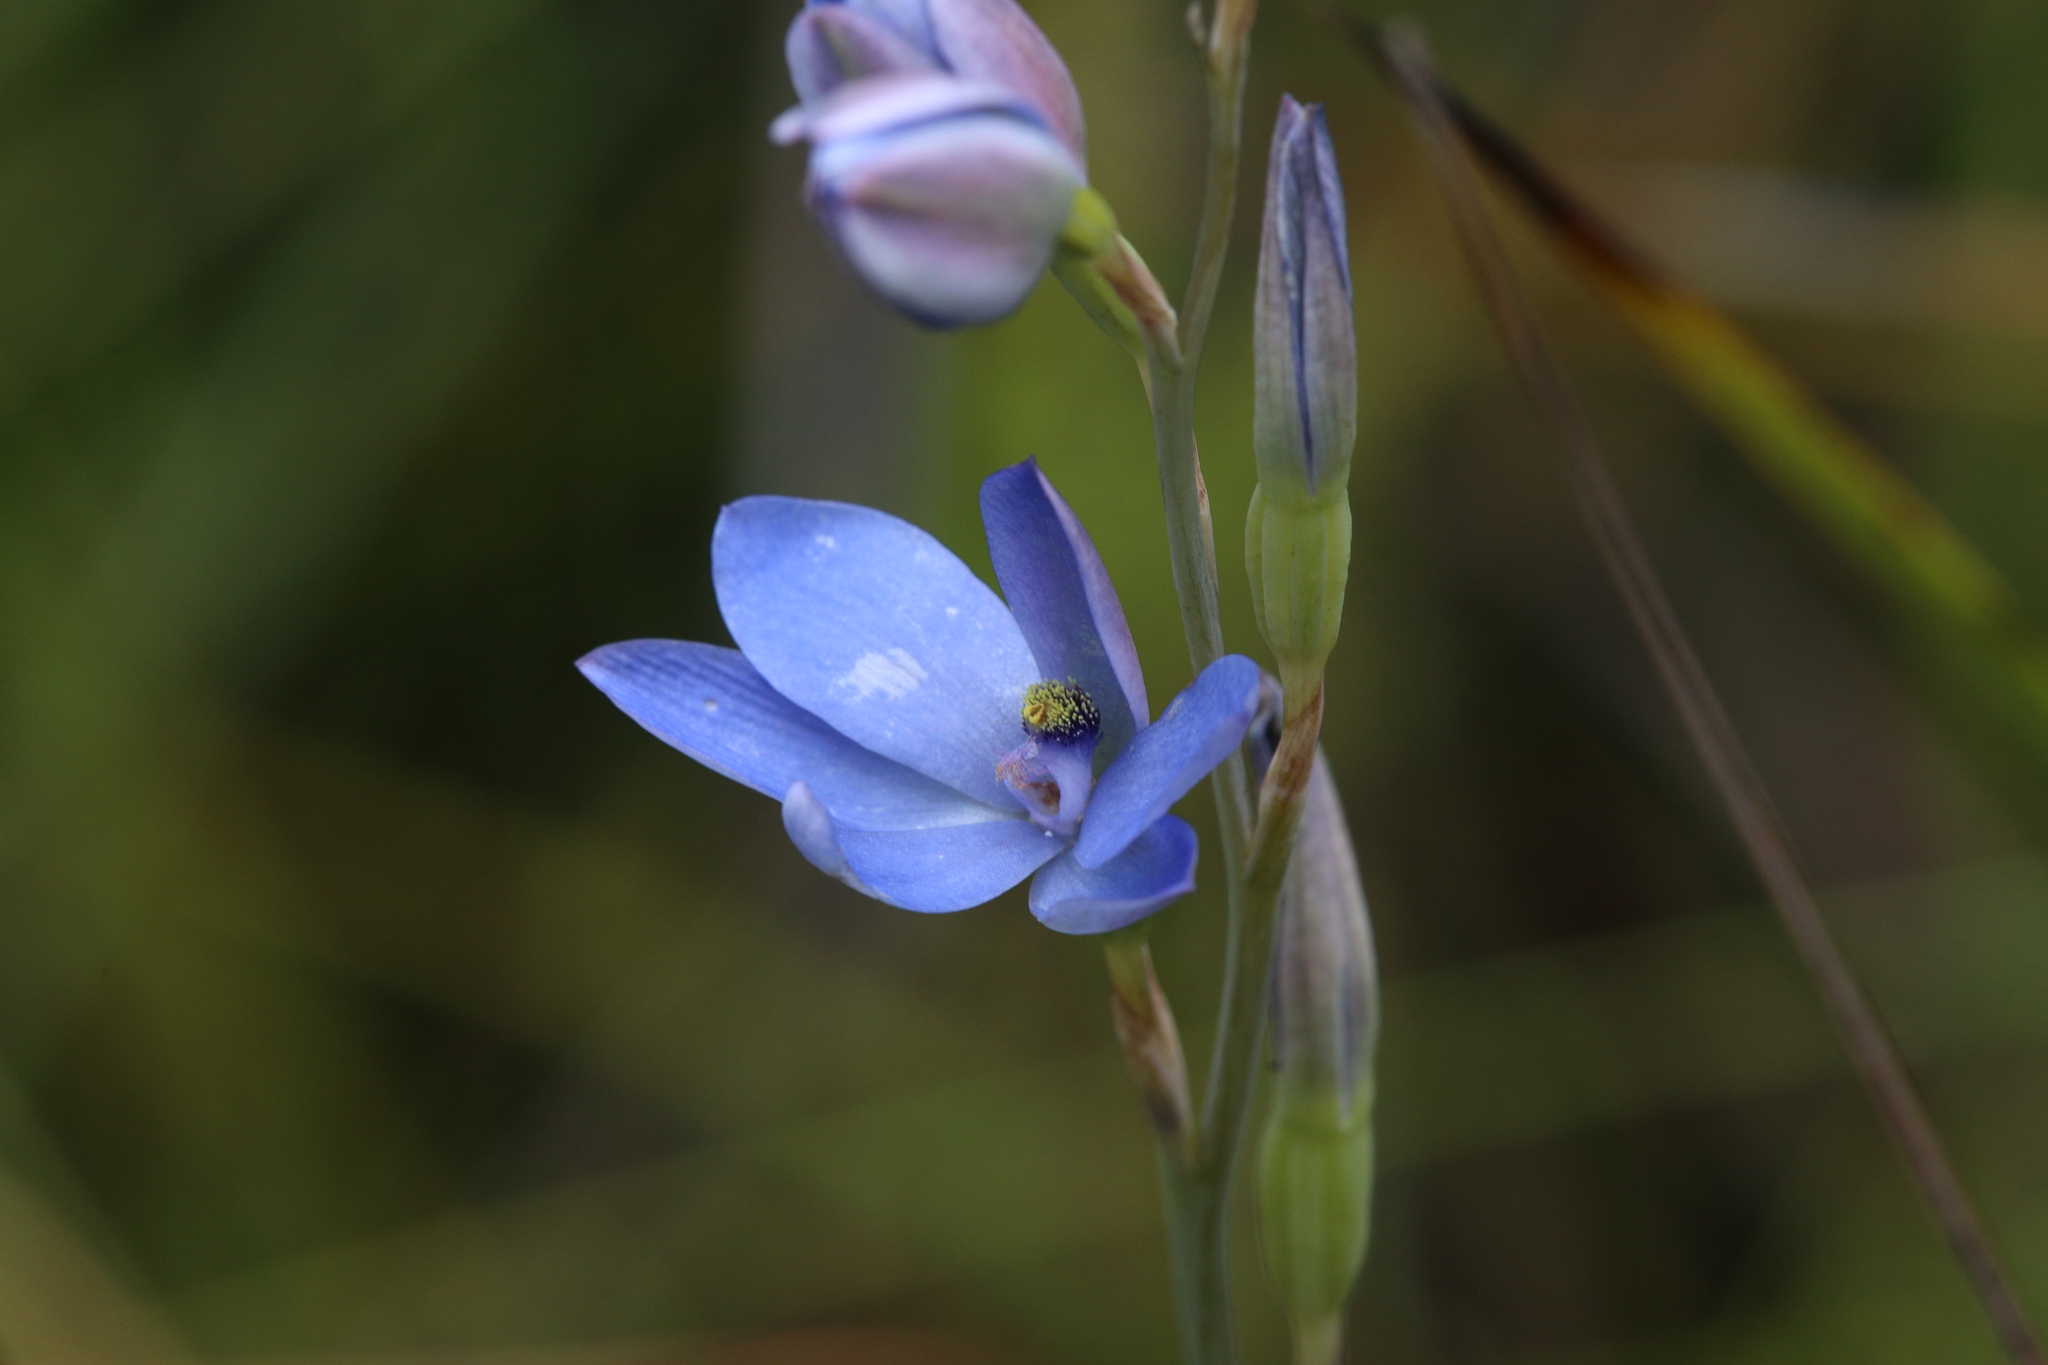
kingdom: Plantae
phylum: Tracheophyta
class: Liliopsida
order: Asparagales
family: Orchidaceae
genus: Thelymitra
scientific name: Thelymitra crinita
